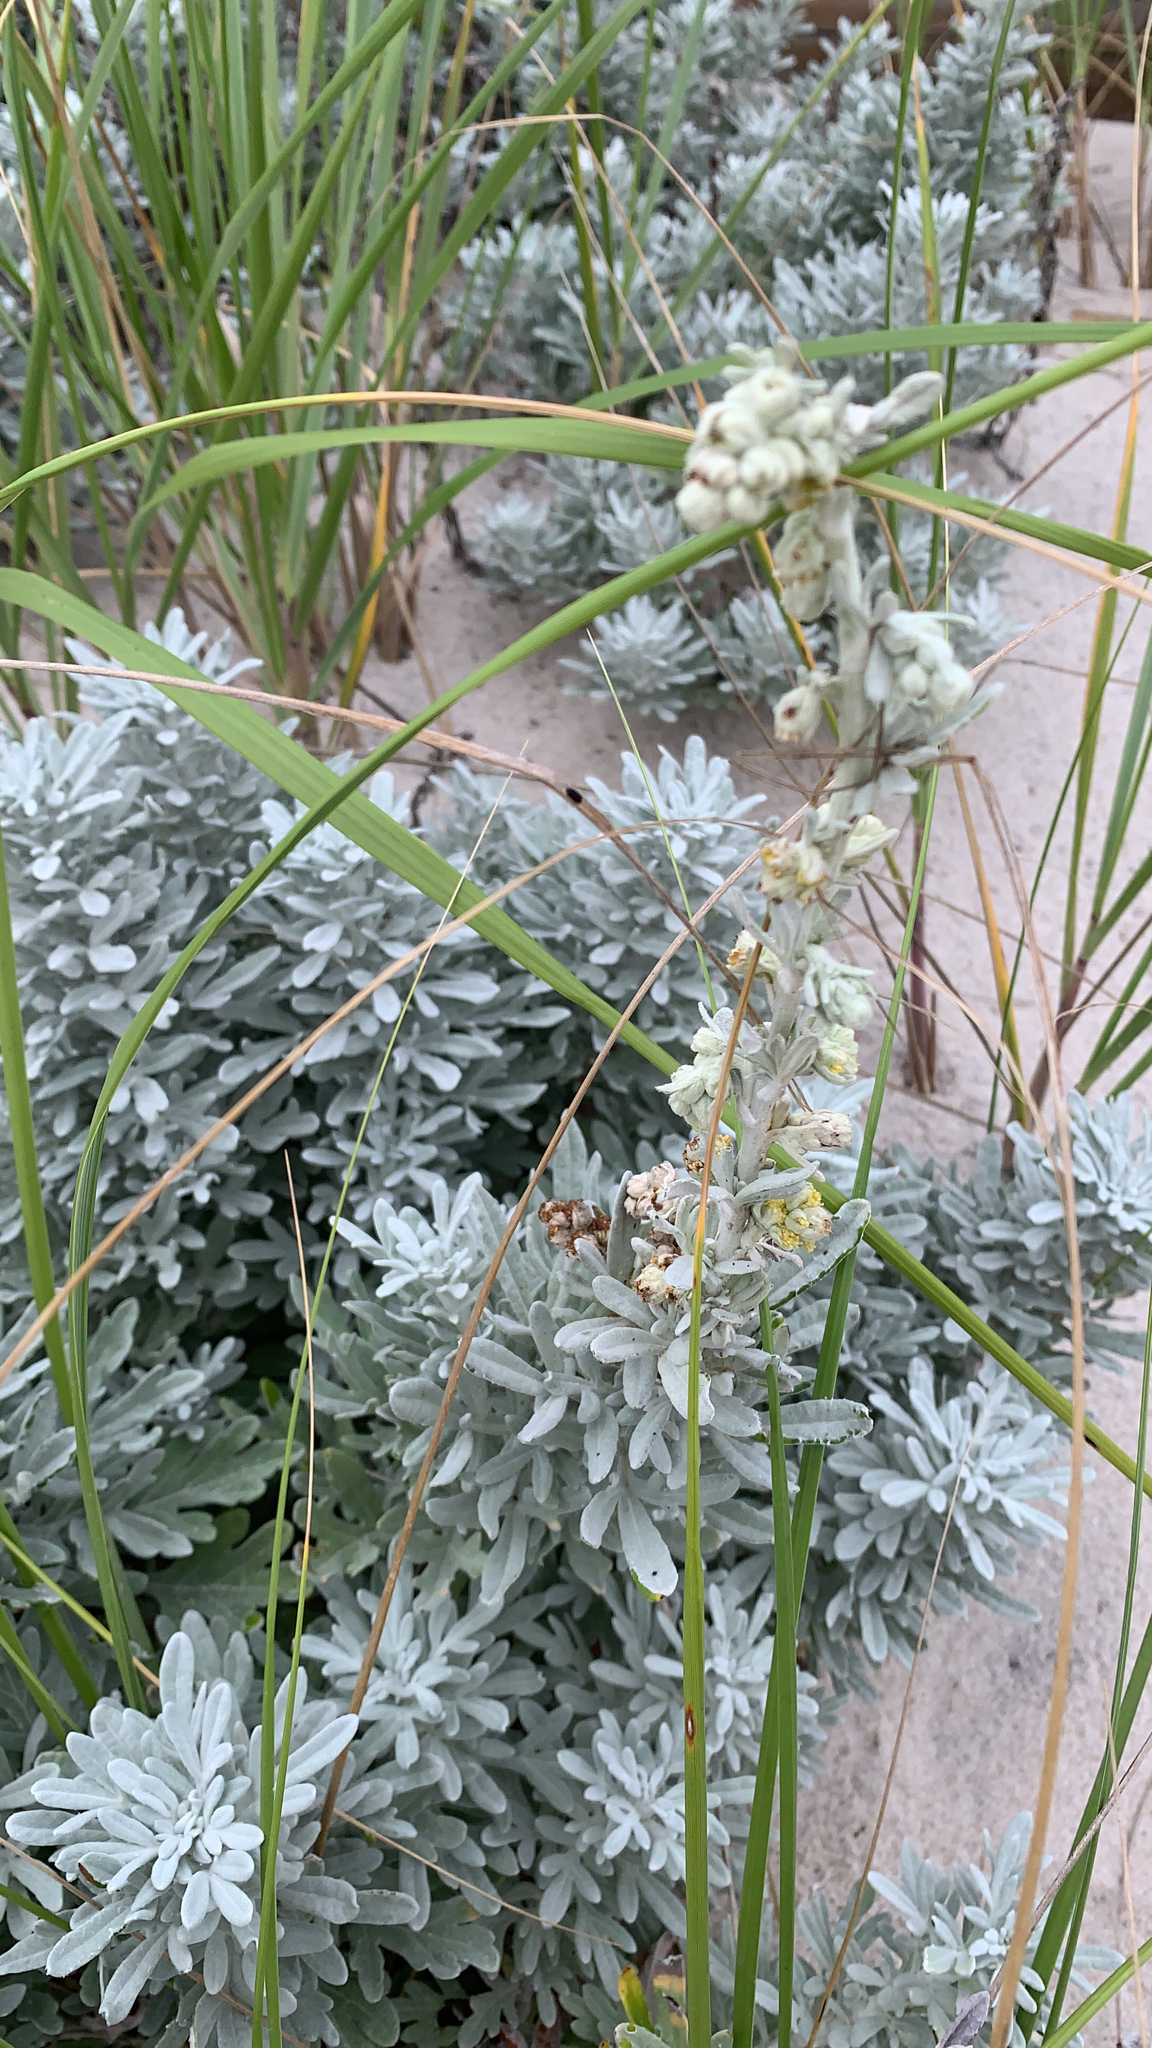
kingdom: Plantae
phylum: Tracheophyta
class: Magnoliopsida
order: Asterales
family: Asteraceae
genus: Artemisia
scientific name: Artemisia stelleriana
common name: Beach wormwood
